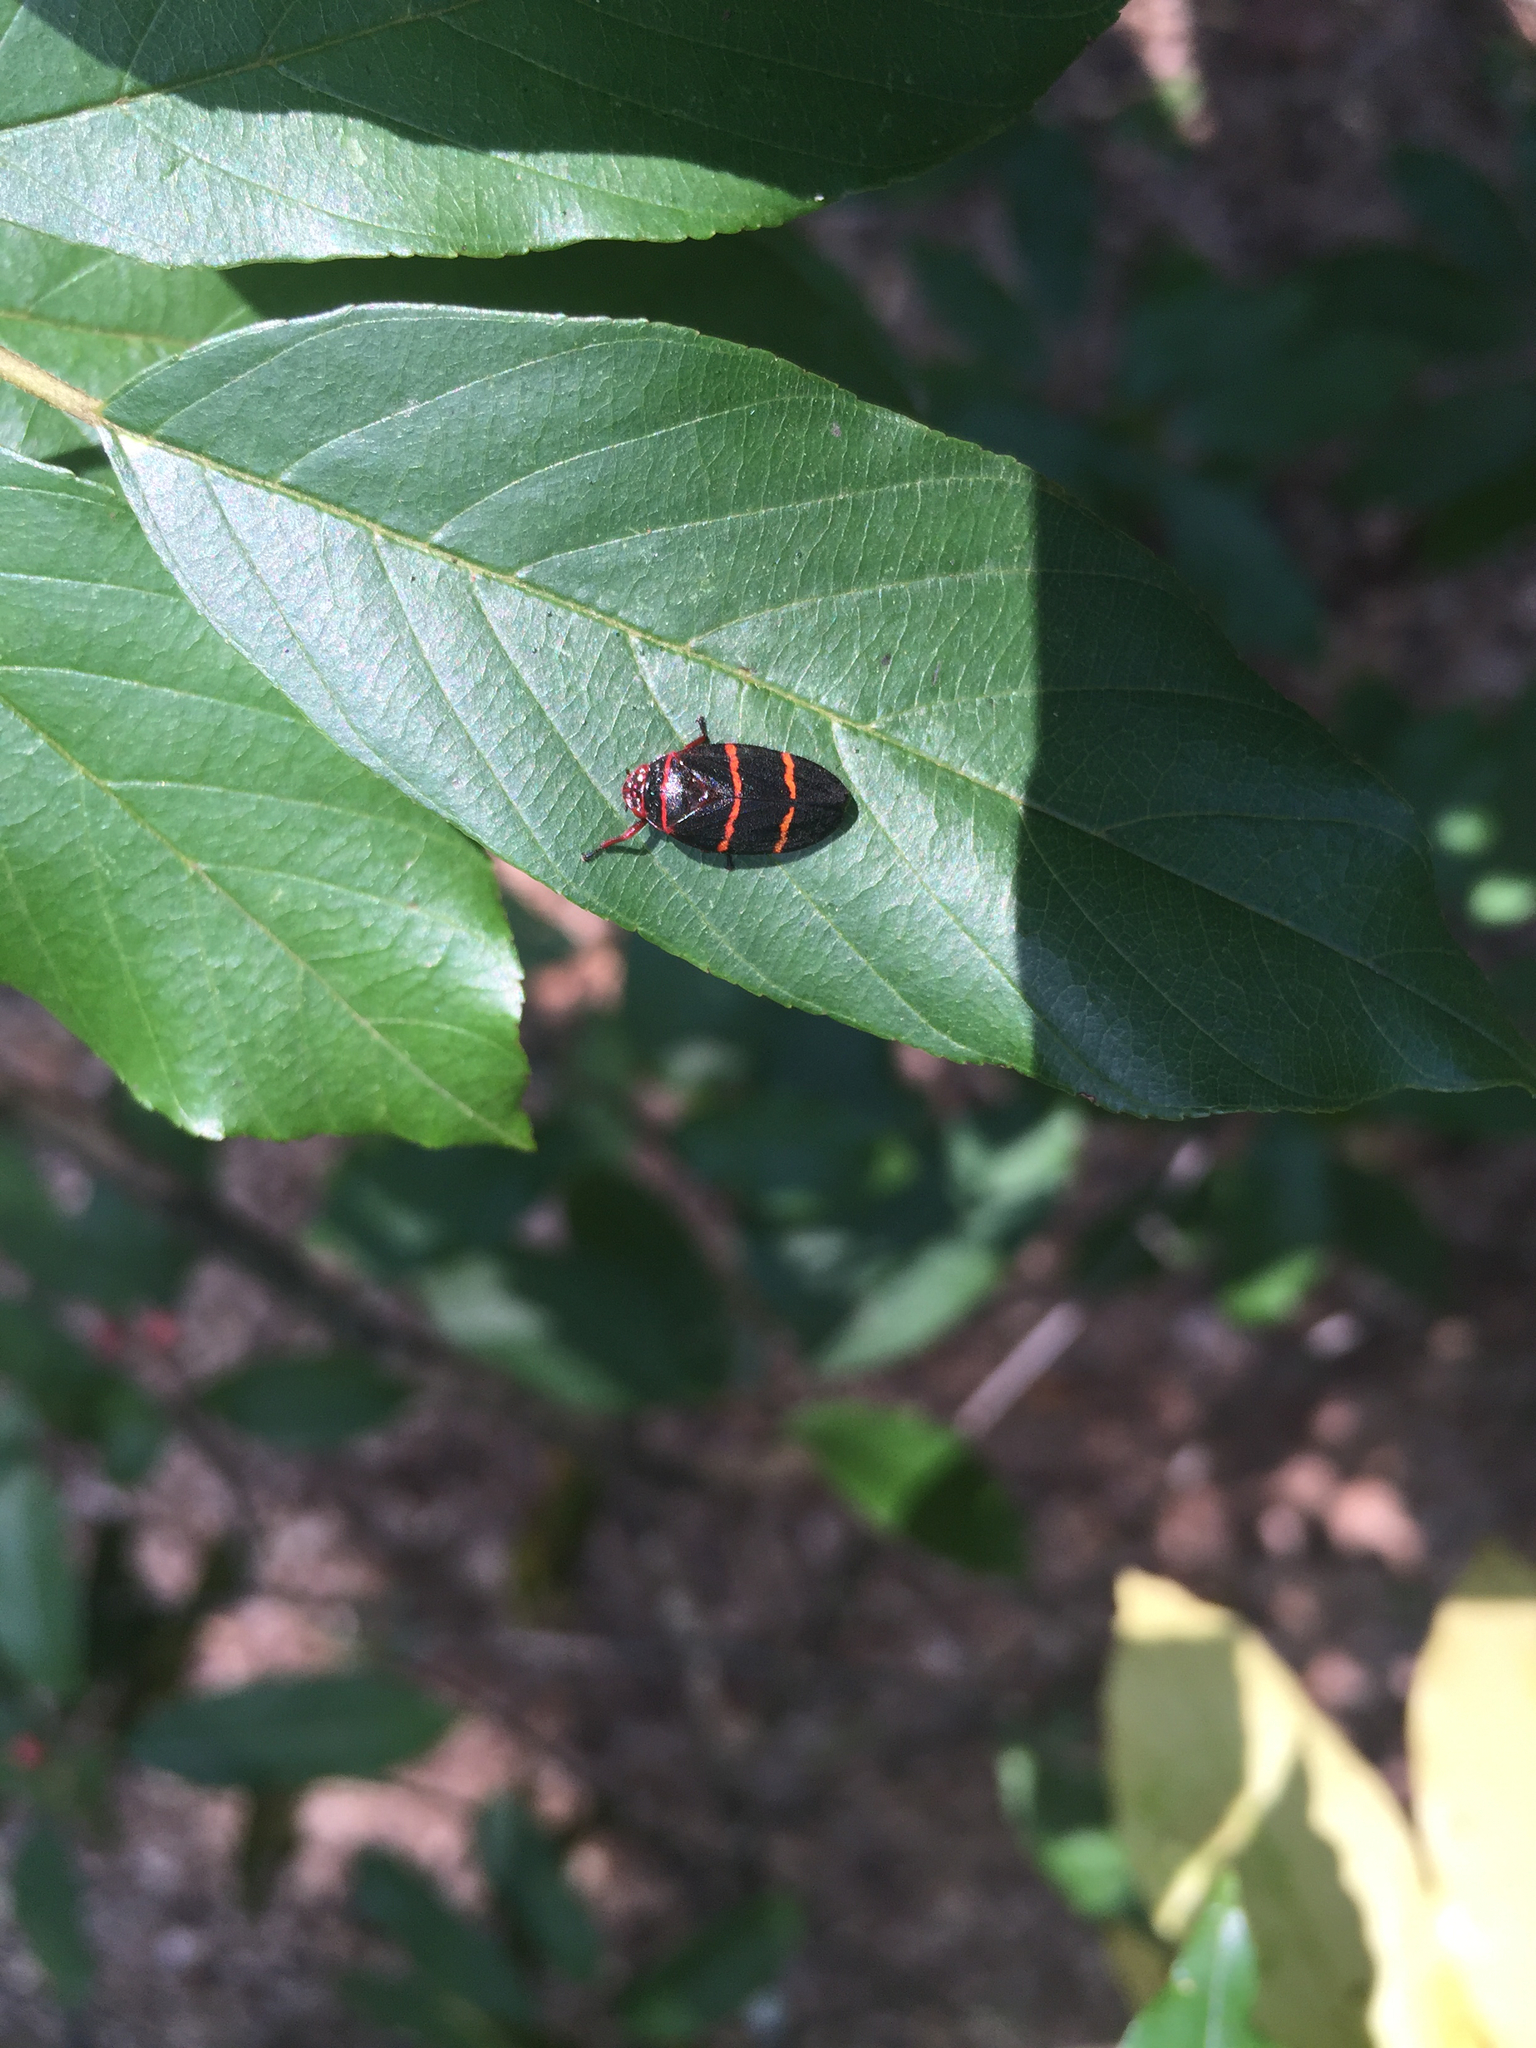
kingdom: Animalia
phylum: Arthropoda
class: Insecta
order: Hemiptera
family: Cercopidae
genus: Prosapia
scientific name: Prosapia bicincta
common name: Twolined spittlebug
